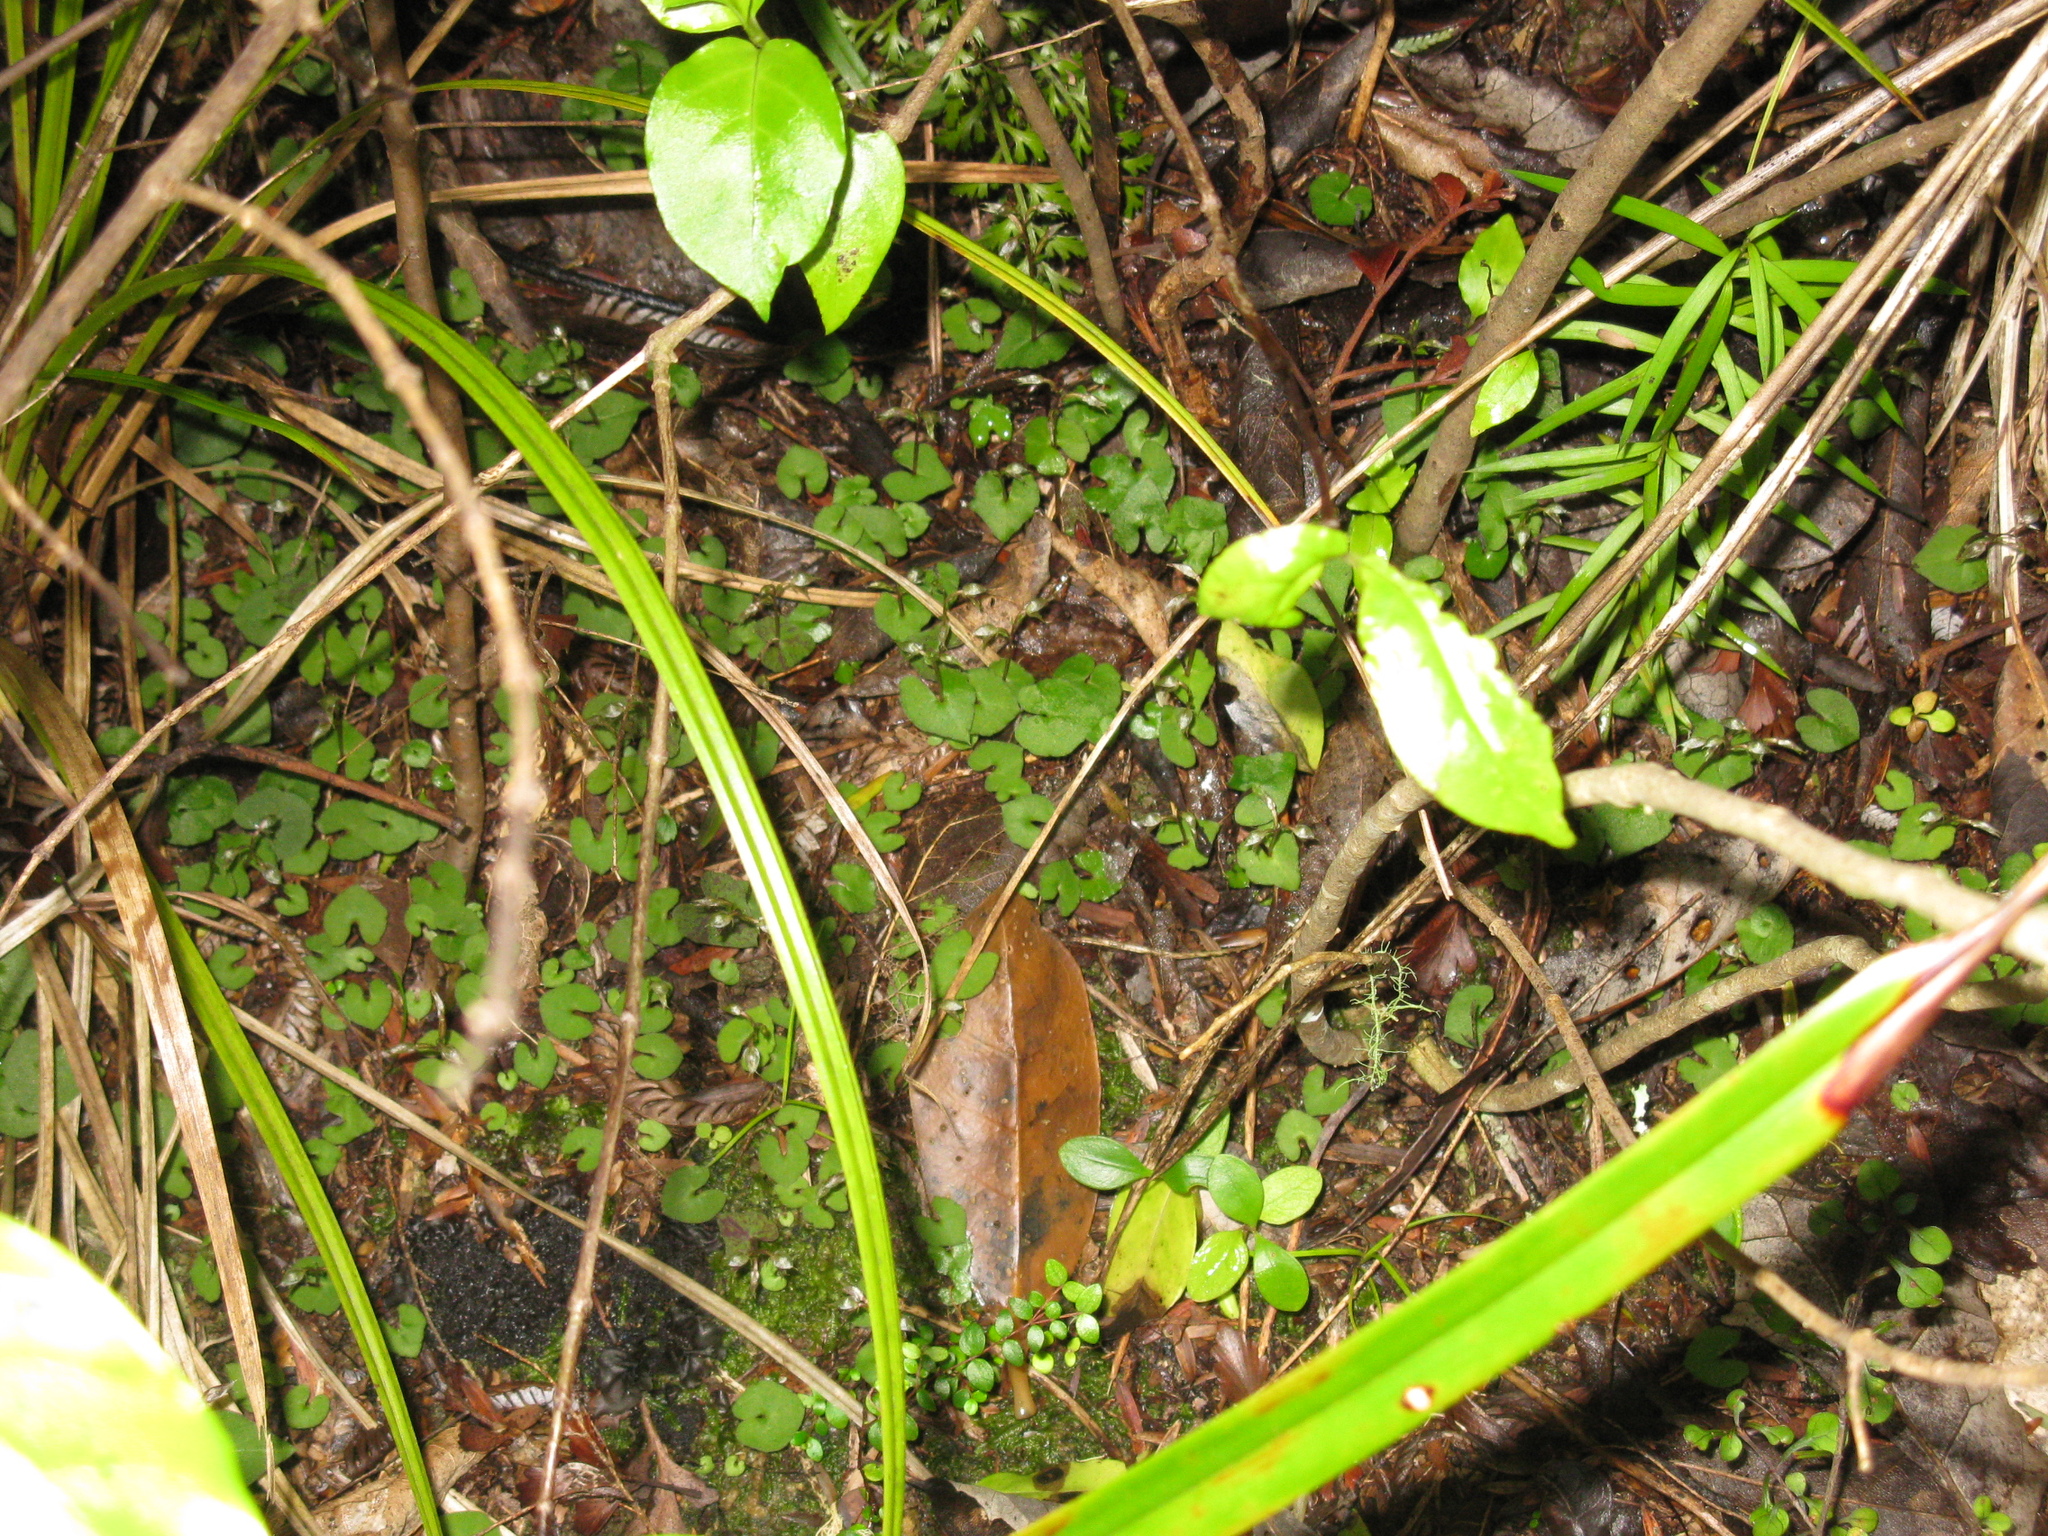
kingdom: Plantae
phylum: Tracheophyta
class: Liliopsida
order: Asparagales
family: Orchidaceae
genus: Acianthus
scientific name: Acianthus sinclairii
